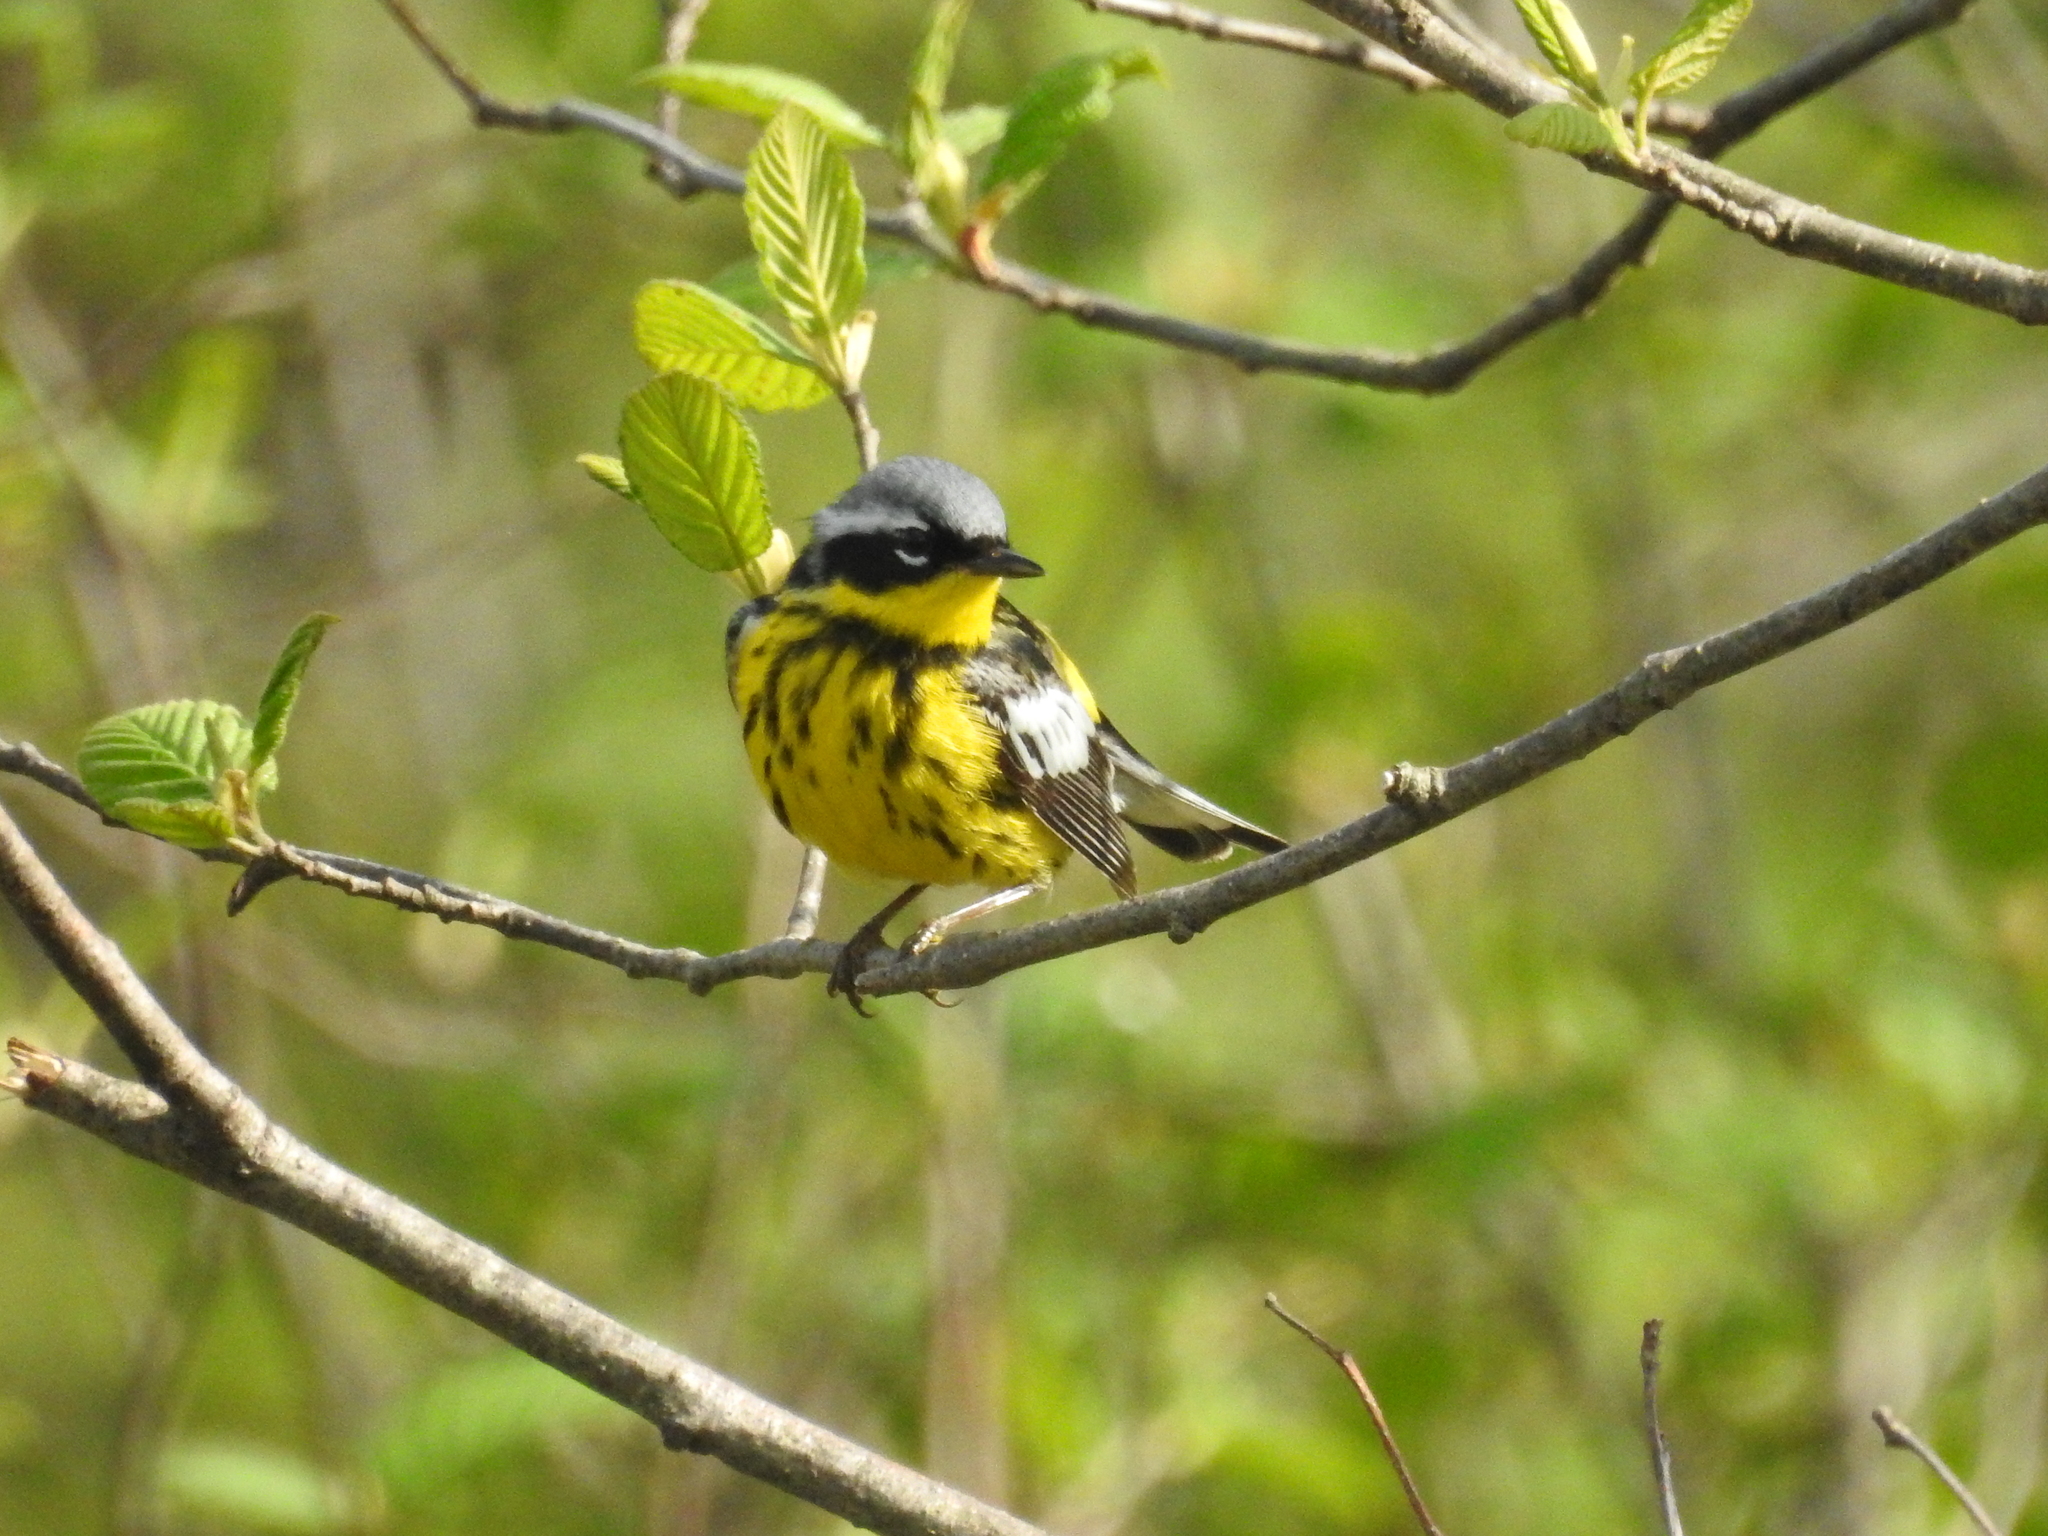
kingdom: Animalia
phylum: Chordata
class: Aves
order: Passeriformes
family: Parulidae
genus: Setophaga
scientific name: Setophaga magnolia
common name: Magnolia warbler
